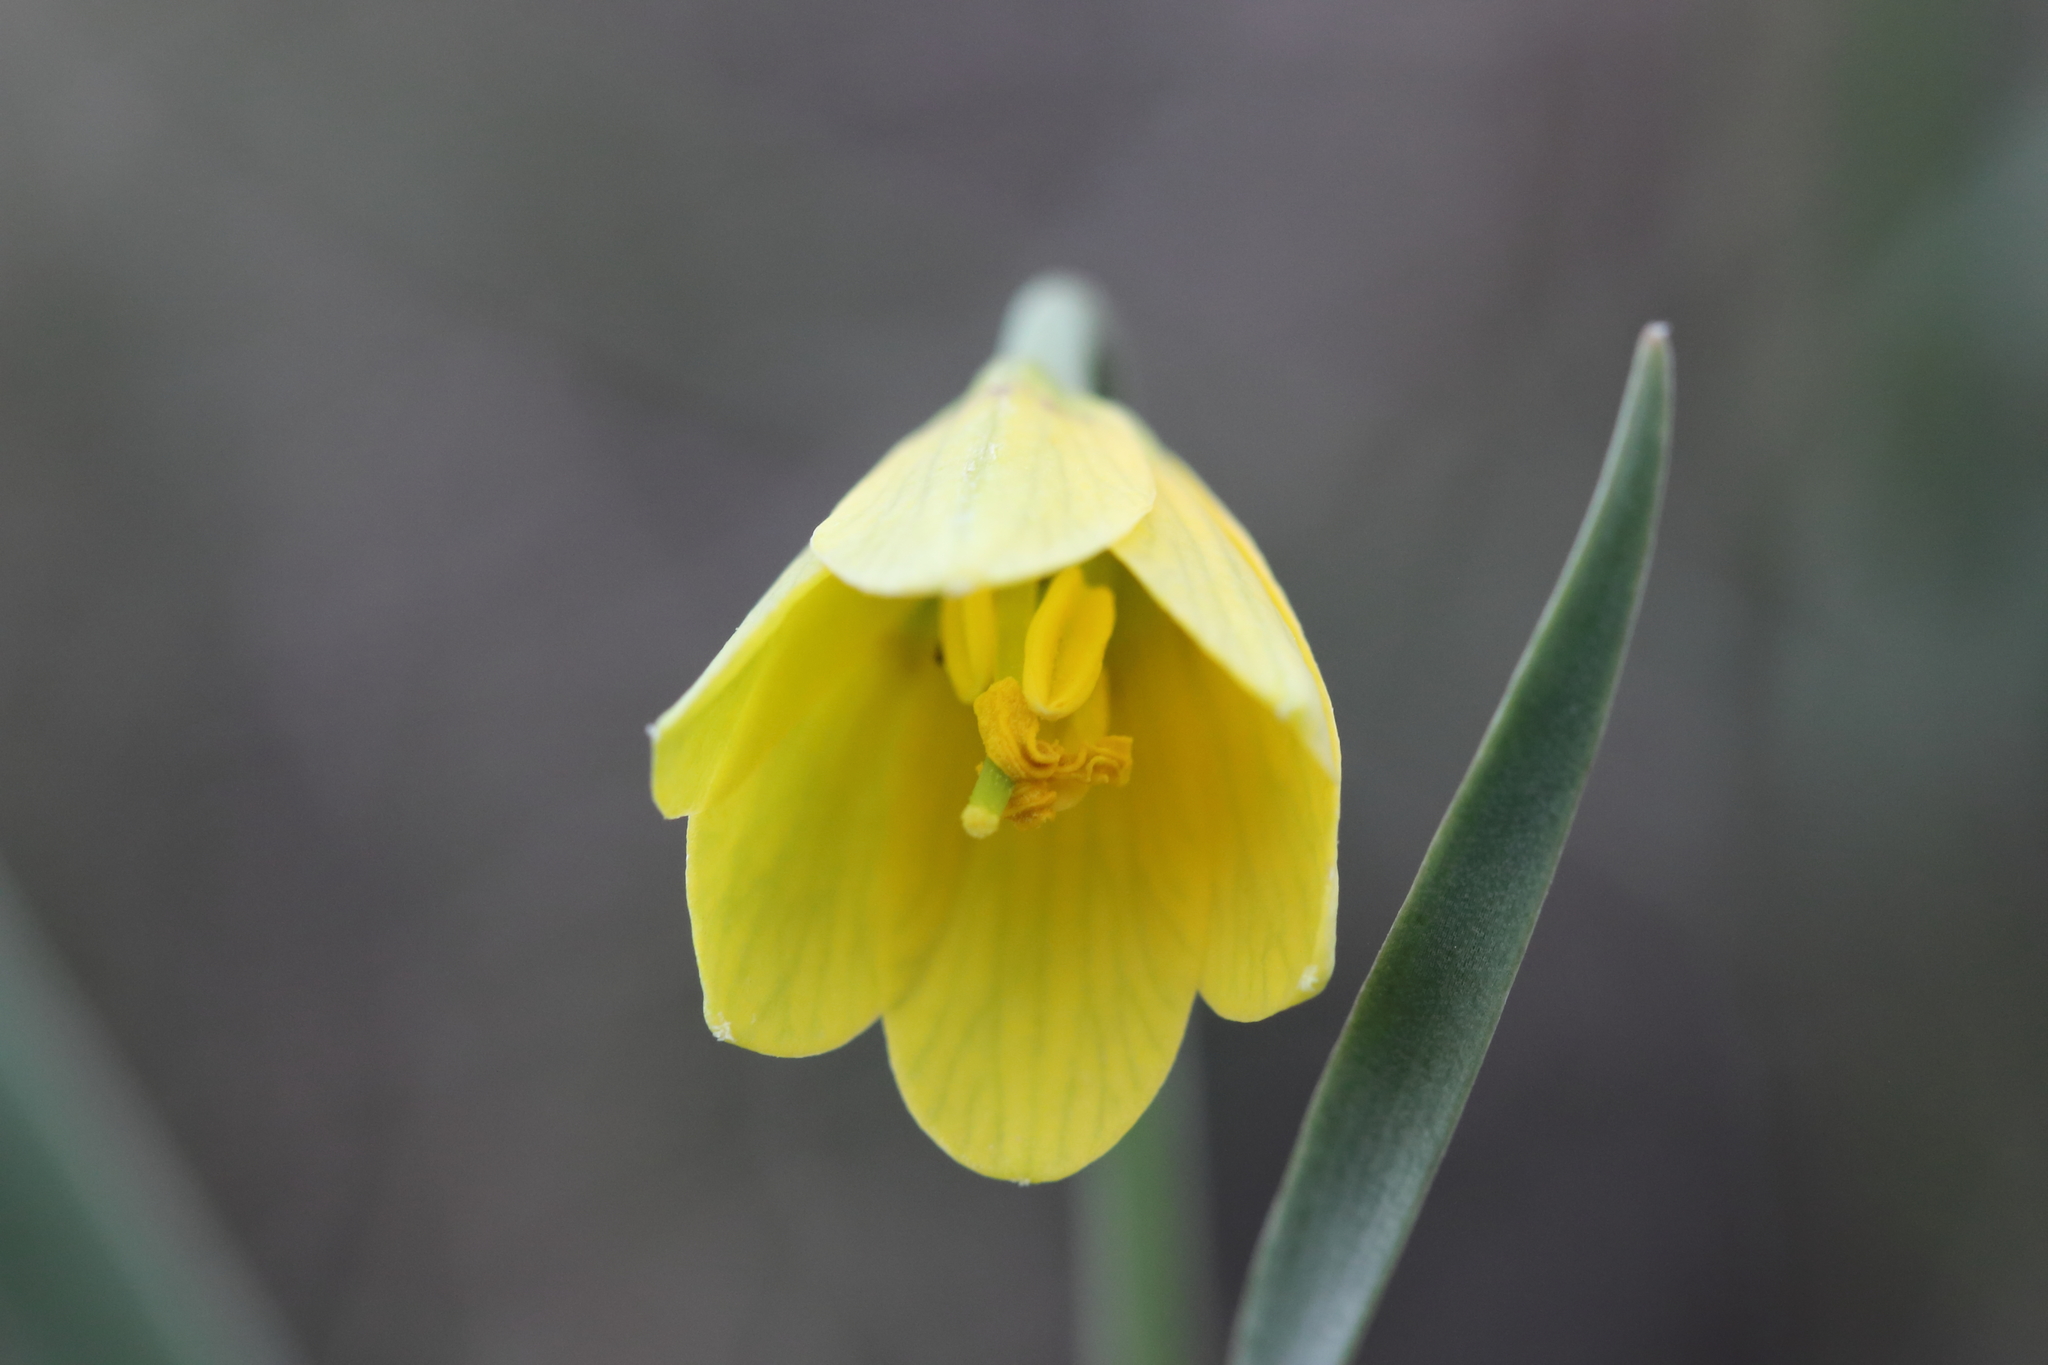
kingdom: Plantae
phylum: Tracheophyta
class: Liliopsida
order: Liliales
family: Liliaceae
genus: Fritillaria
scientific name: Fritillaria pudica
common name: Yellow fritillary
